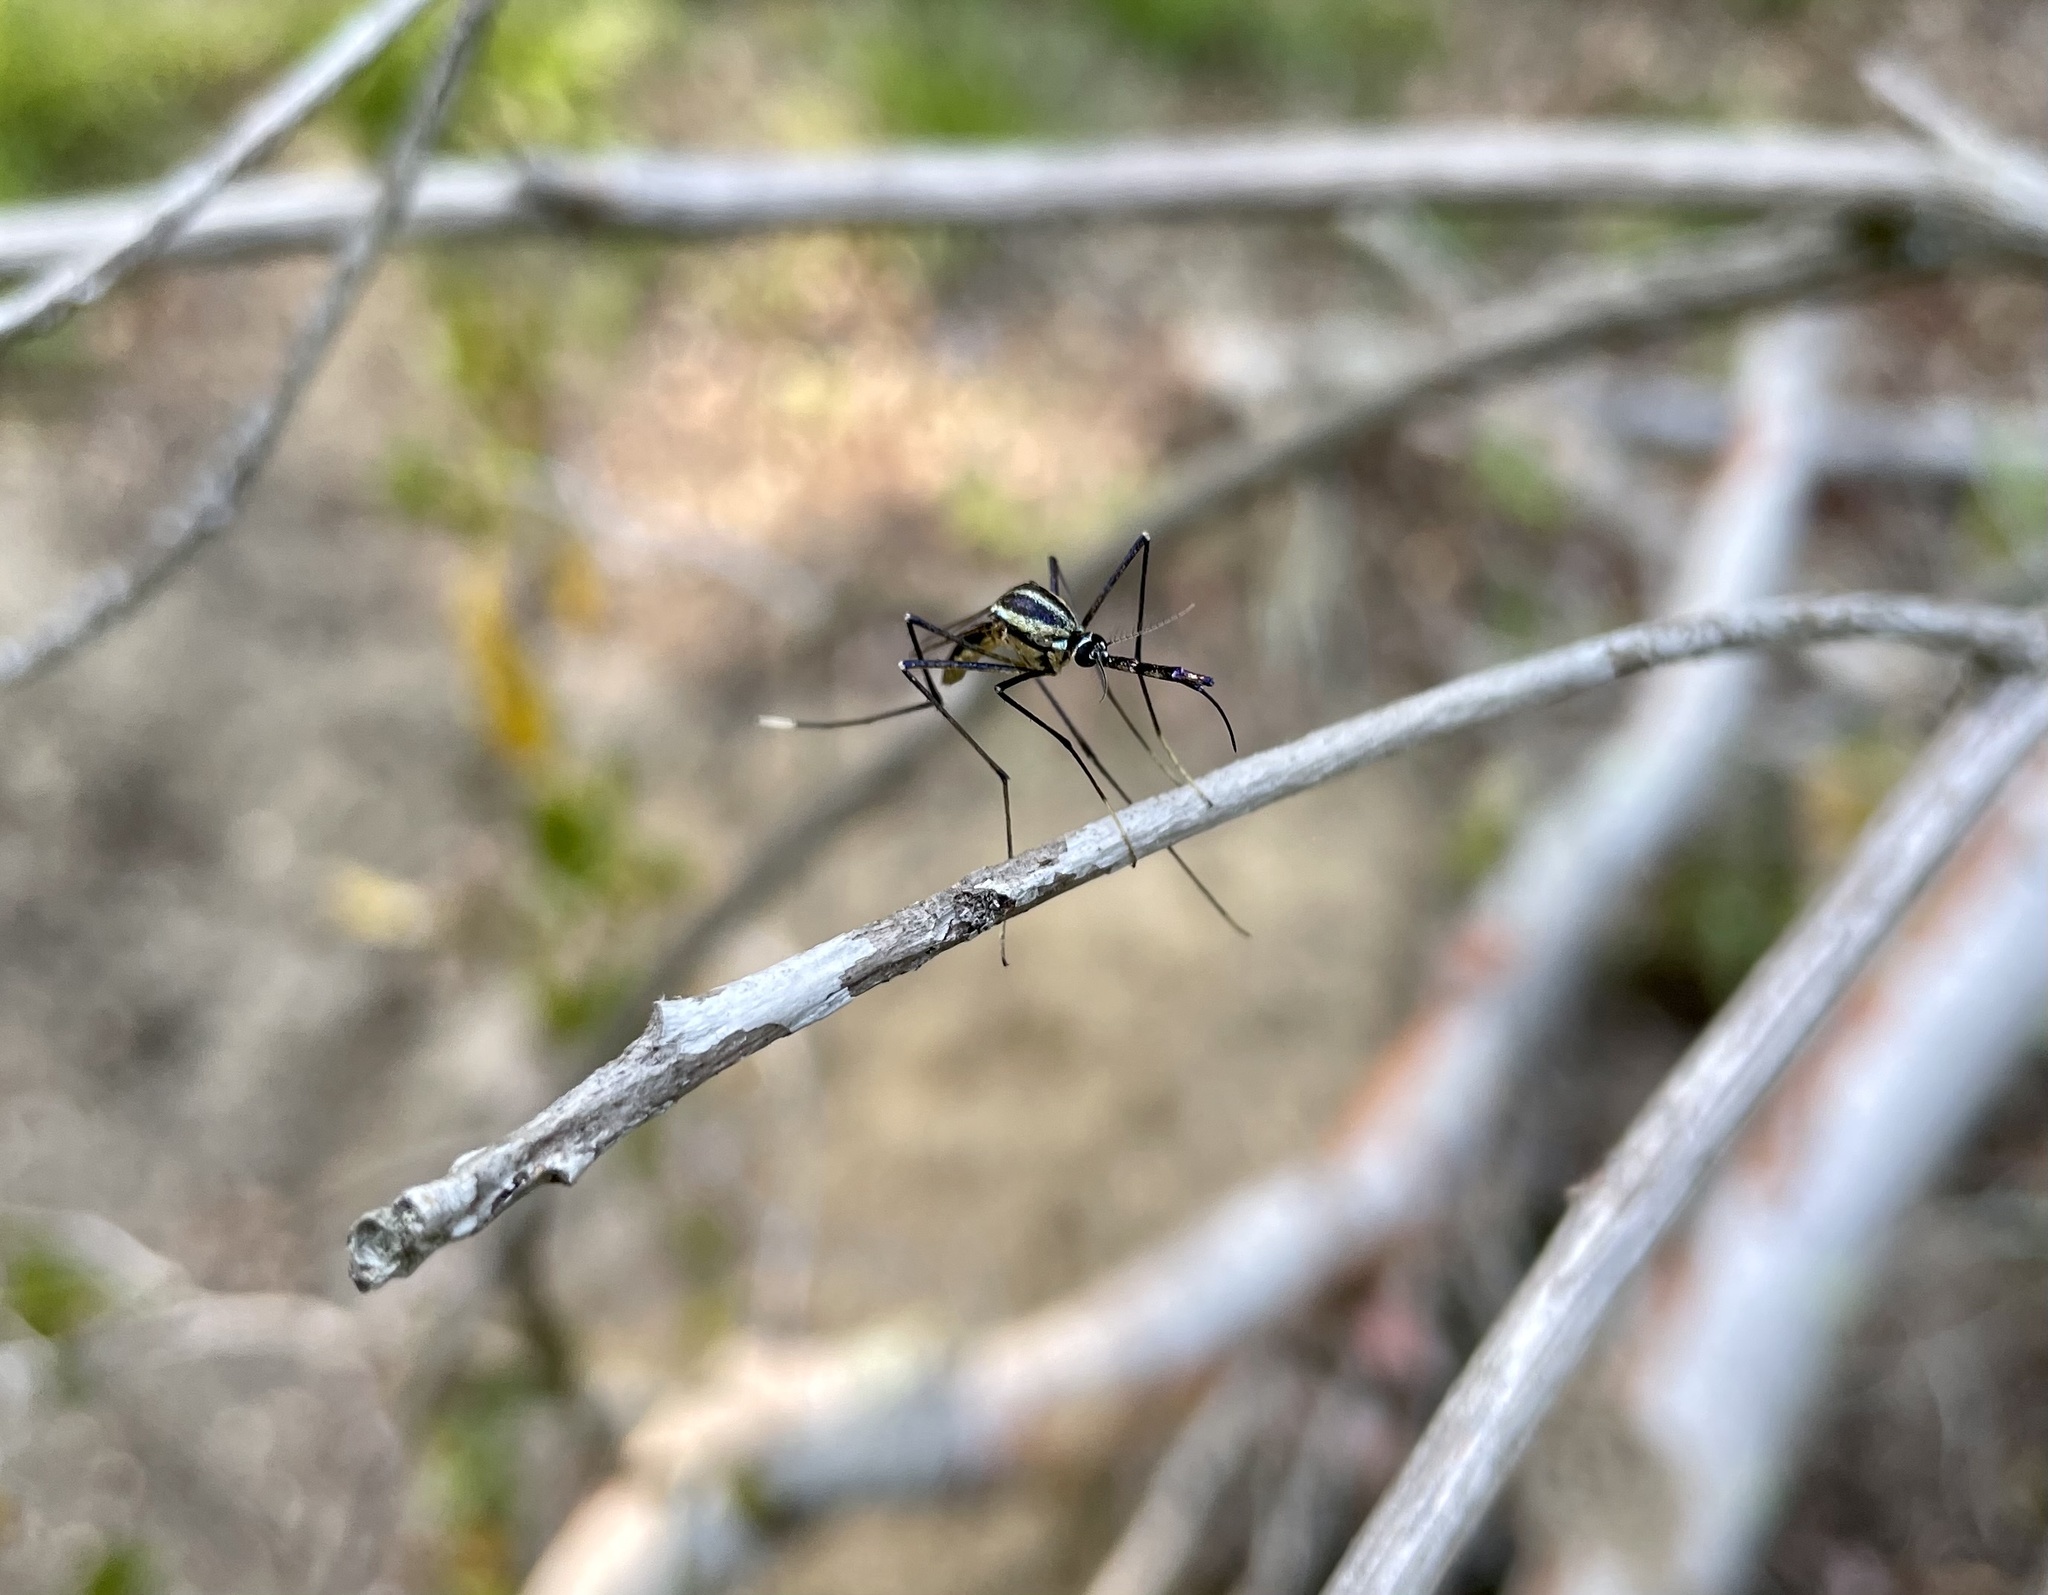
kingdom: Animalia
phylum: Arthropoda
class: Insecta
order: Diptera
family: Culicidae
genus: Toxorhynchites
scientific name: Toxorhynchites rutilus
